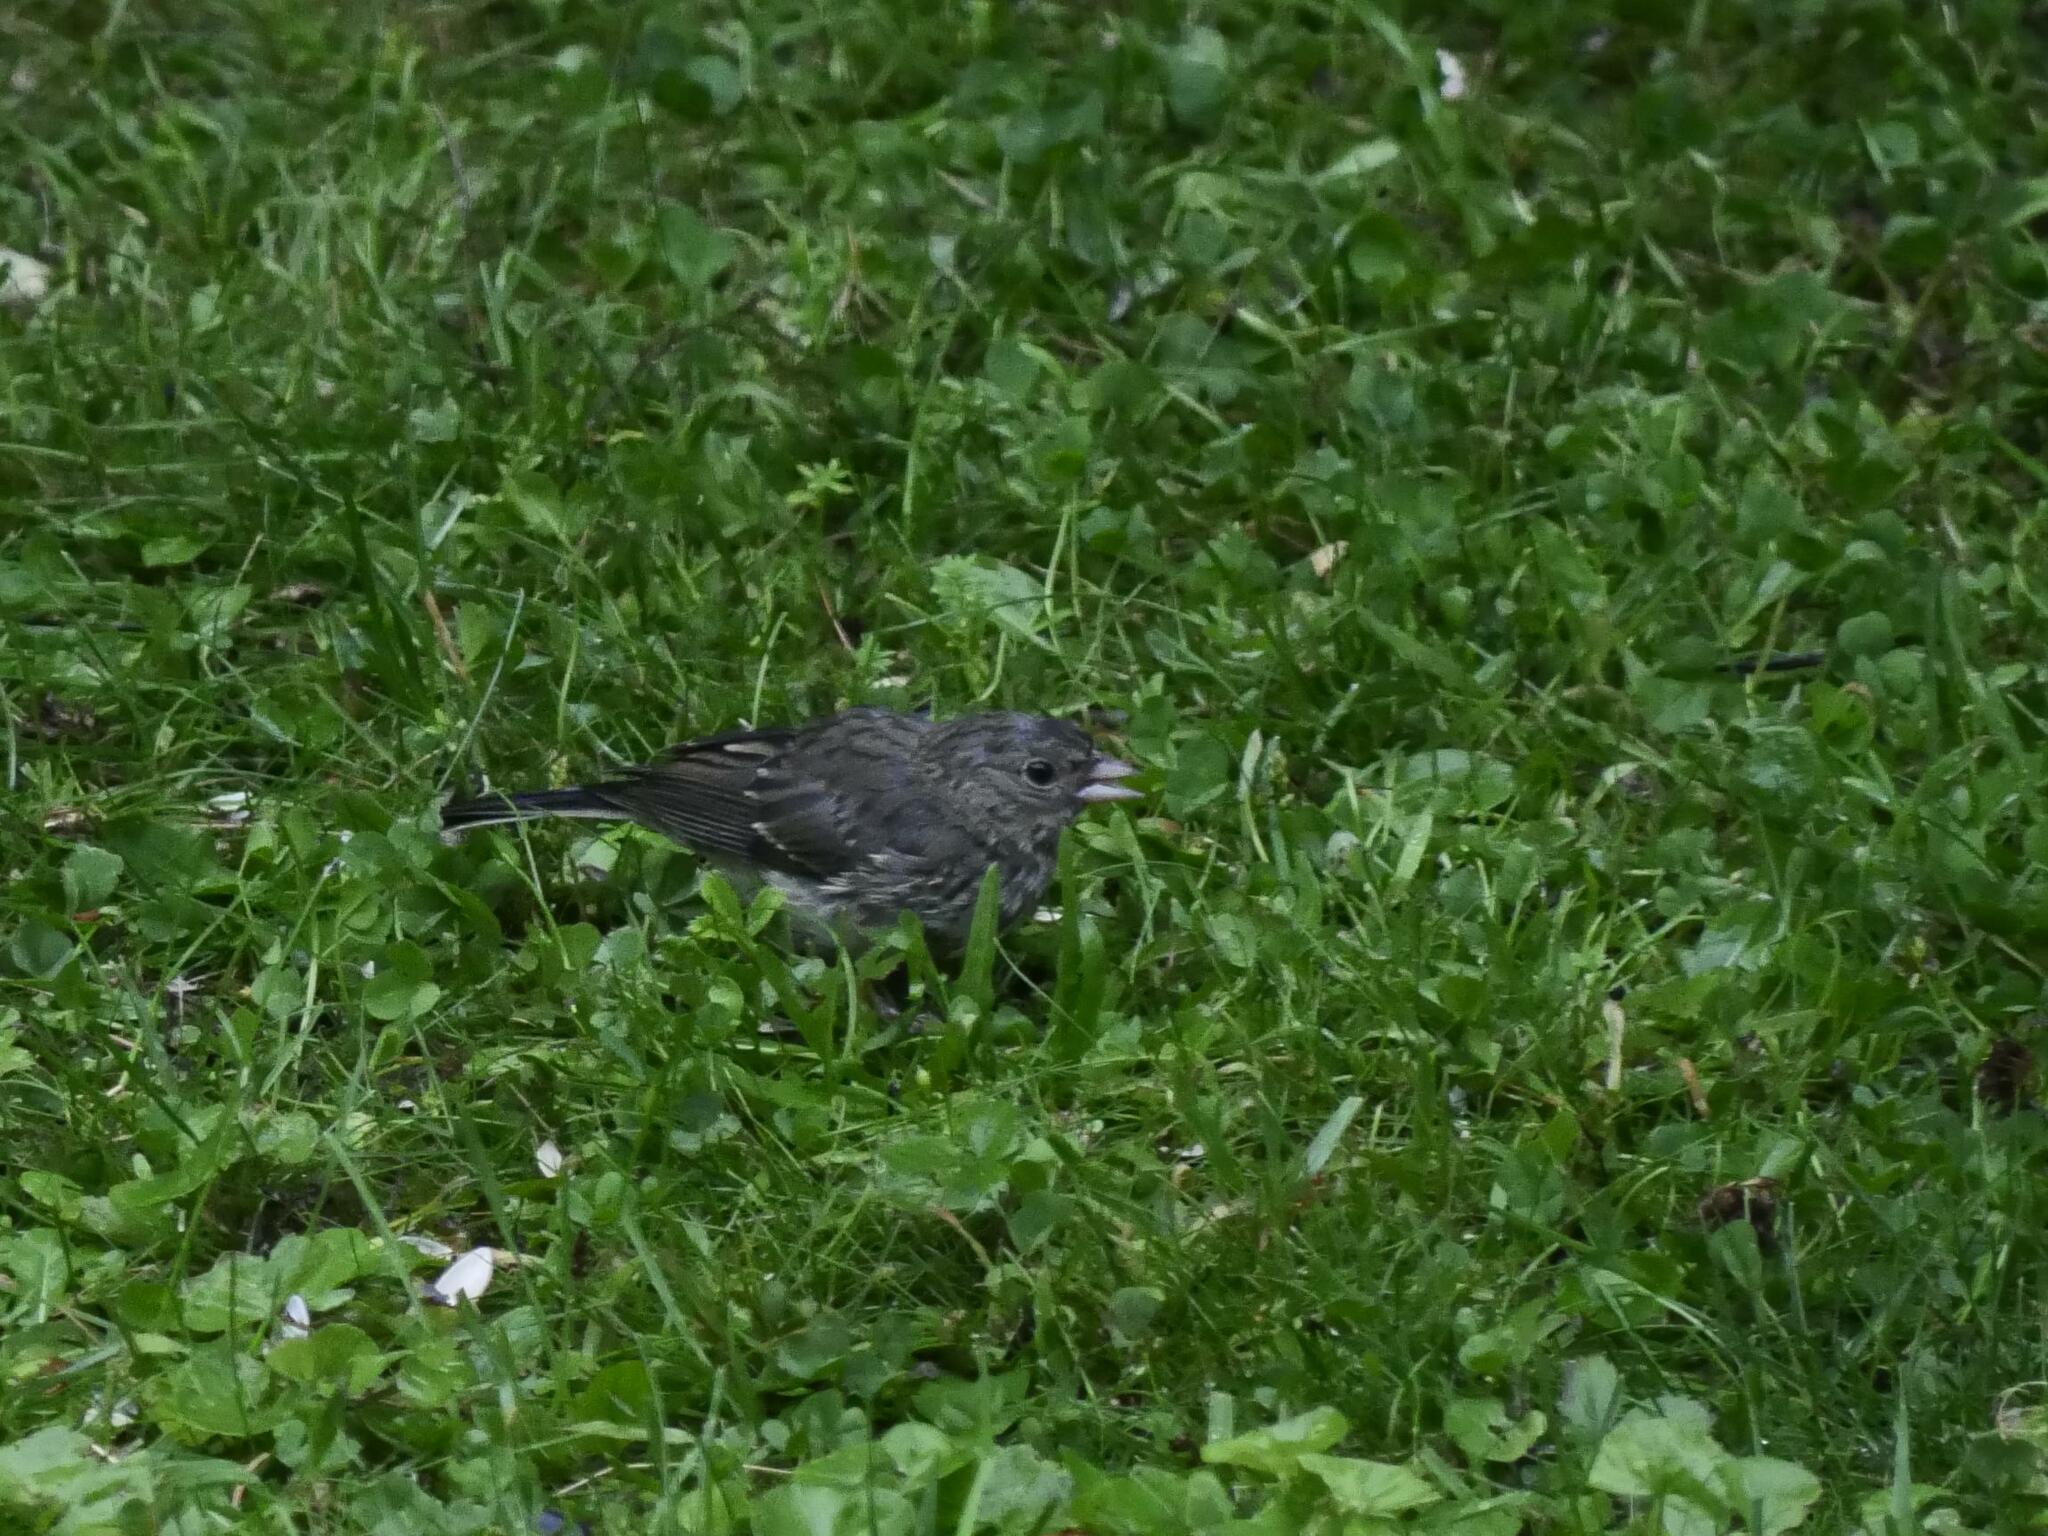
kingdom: Animalia
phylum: Chordata
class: Aves
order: Passeriformes
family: Passerellidae
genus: Junco
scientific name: Junco hyemalis
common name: Dark-eyed junco
